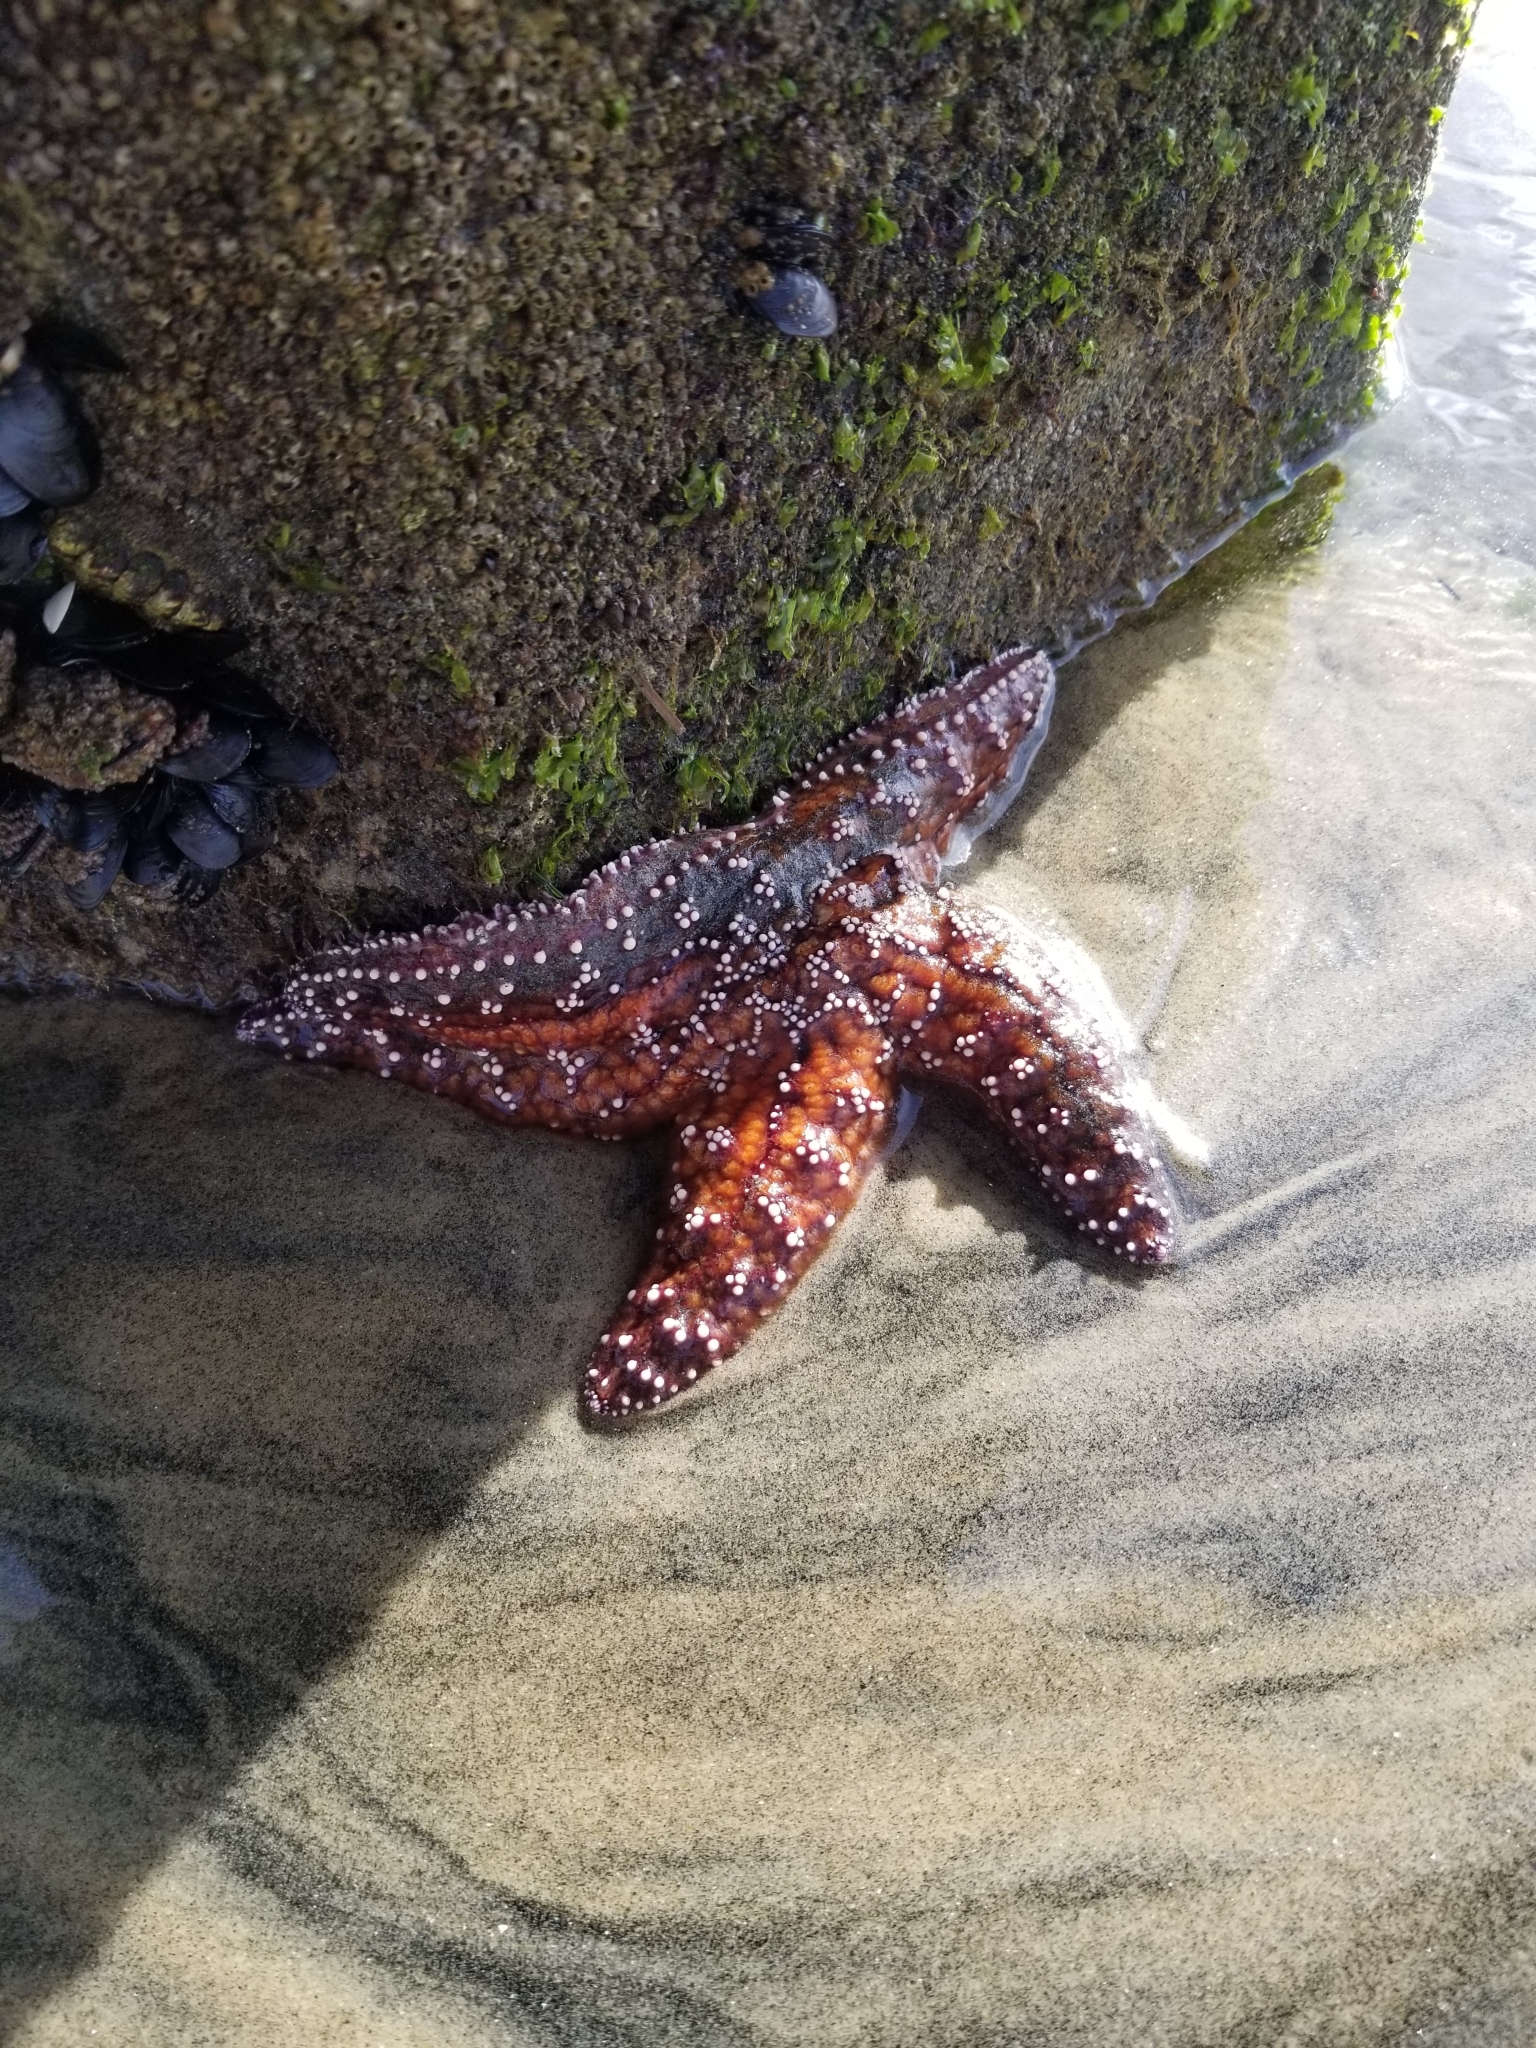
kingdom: Animalia
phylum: Echinodermata
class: Asteroidea
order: Forcipulatida
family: Asteriidae
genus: Pisaster
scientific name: Pisaster ochraceus
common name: Ochre stars
